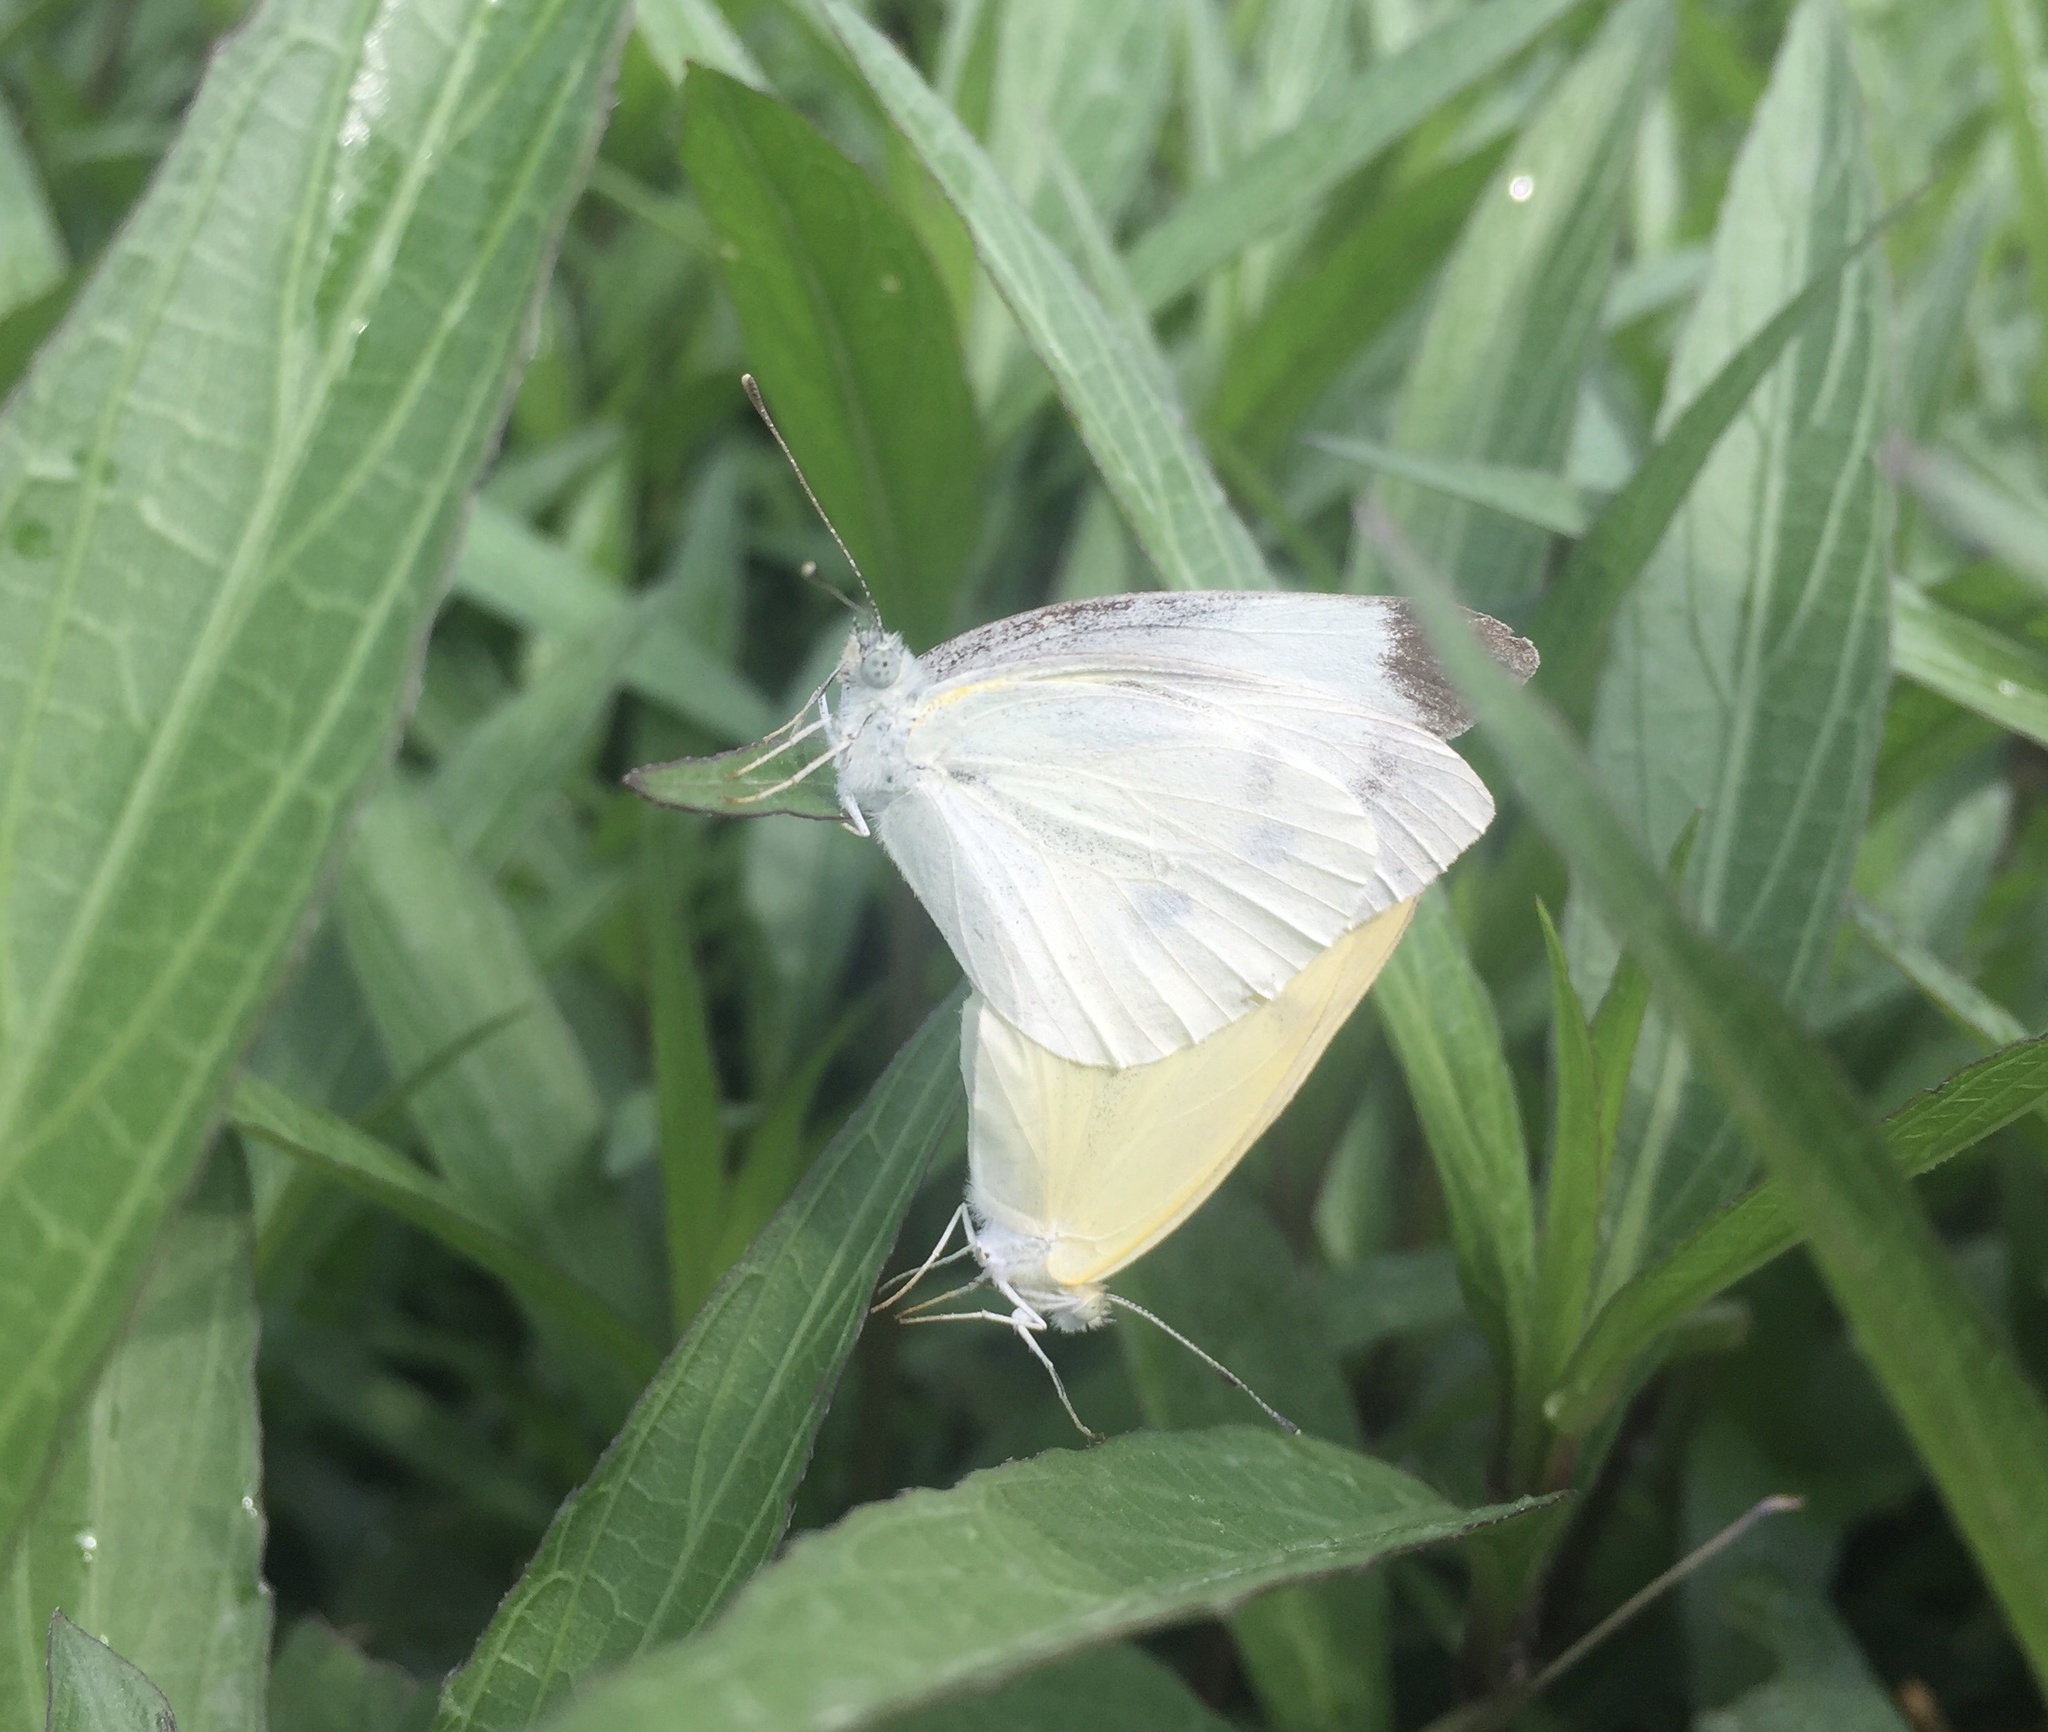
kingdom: Animalia
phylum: Arthropoda
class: Insecta
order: Lepidoptera
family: Pieridae
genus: Pieris
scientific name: Pieris rapae
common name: Small white
